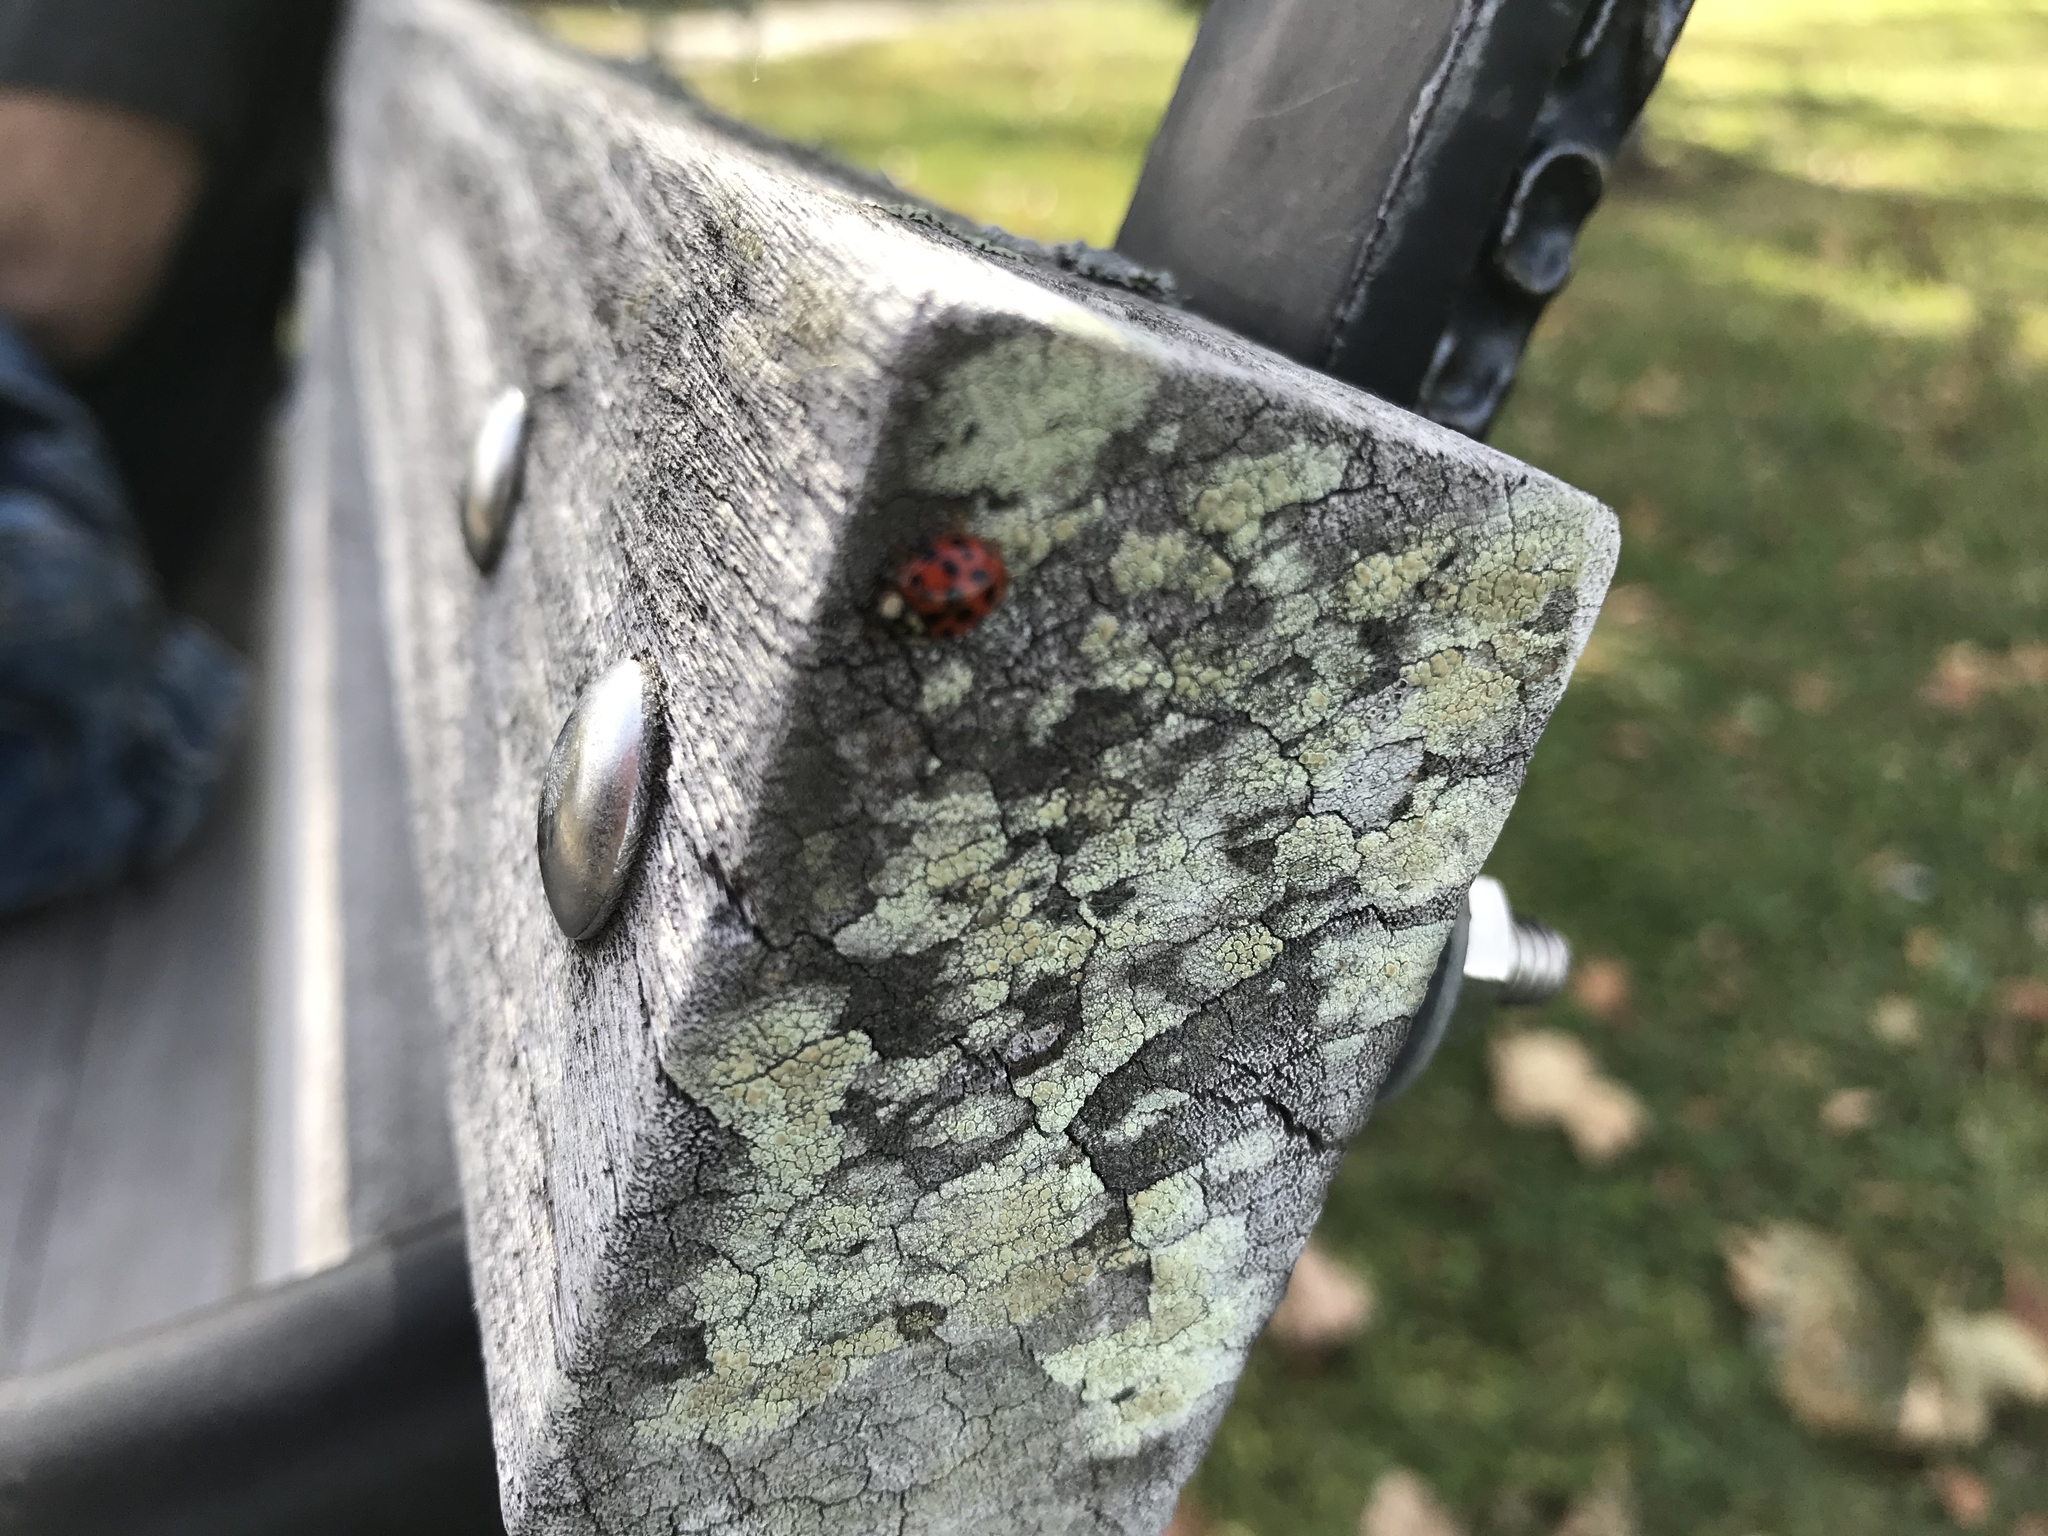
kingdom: Animalia
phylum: Arthropoda
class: Insecta
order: Coleoptera
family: Coccinellidae
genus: Harmonia
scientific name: Harmonia axyridis
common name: Harlequin ladybird
